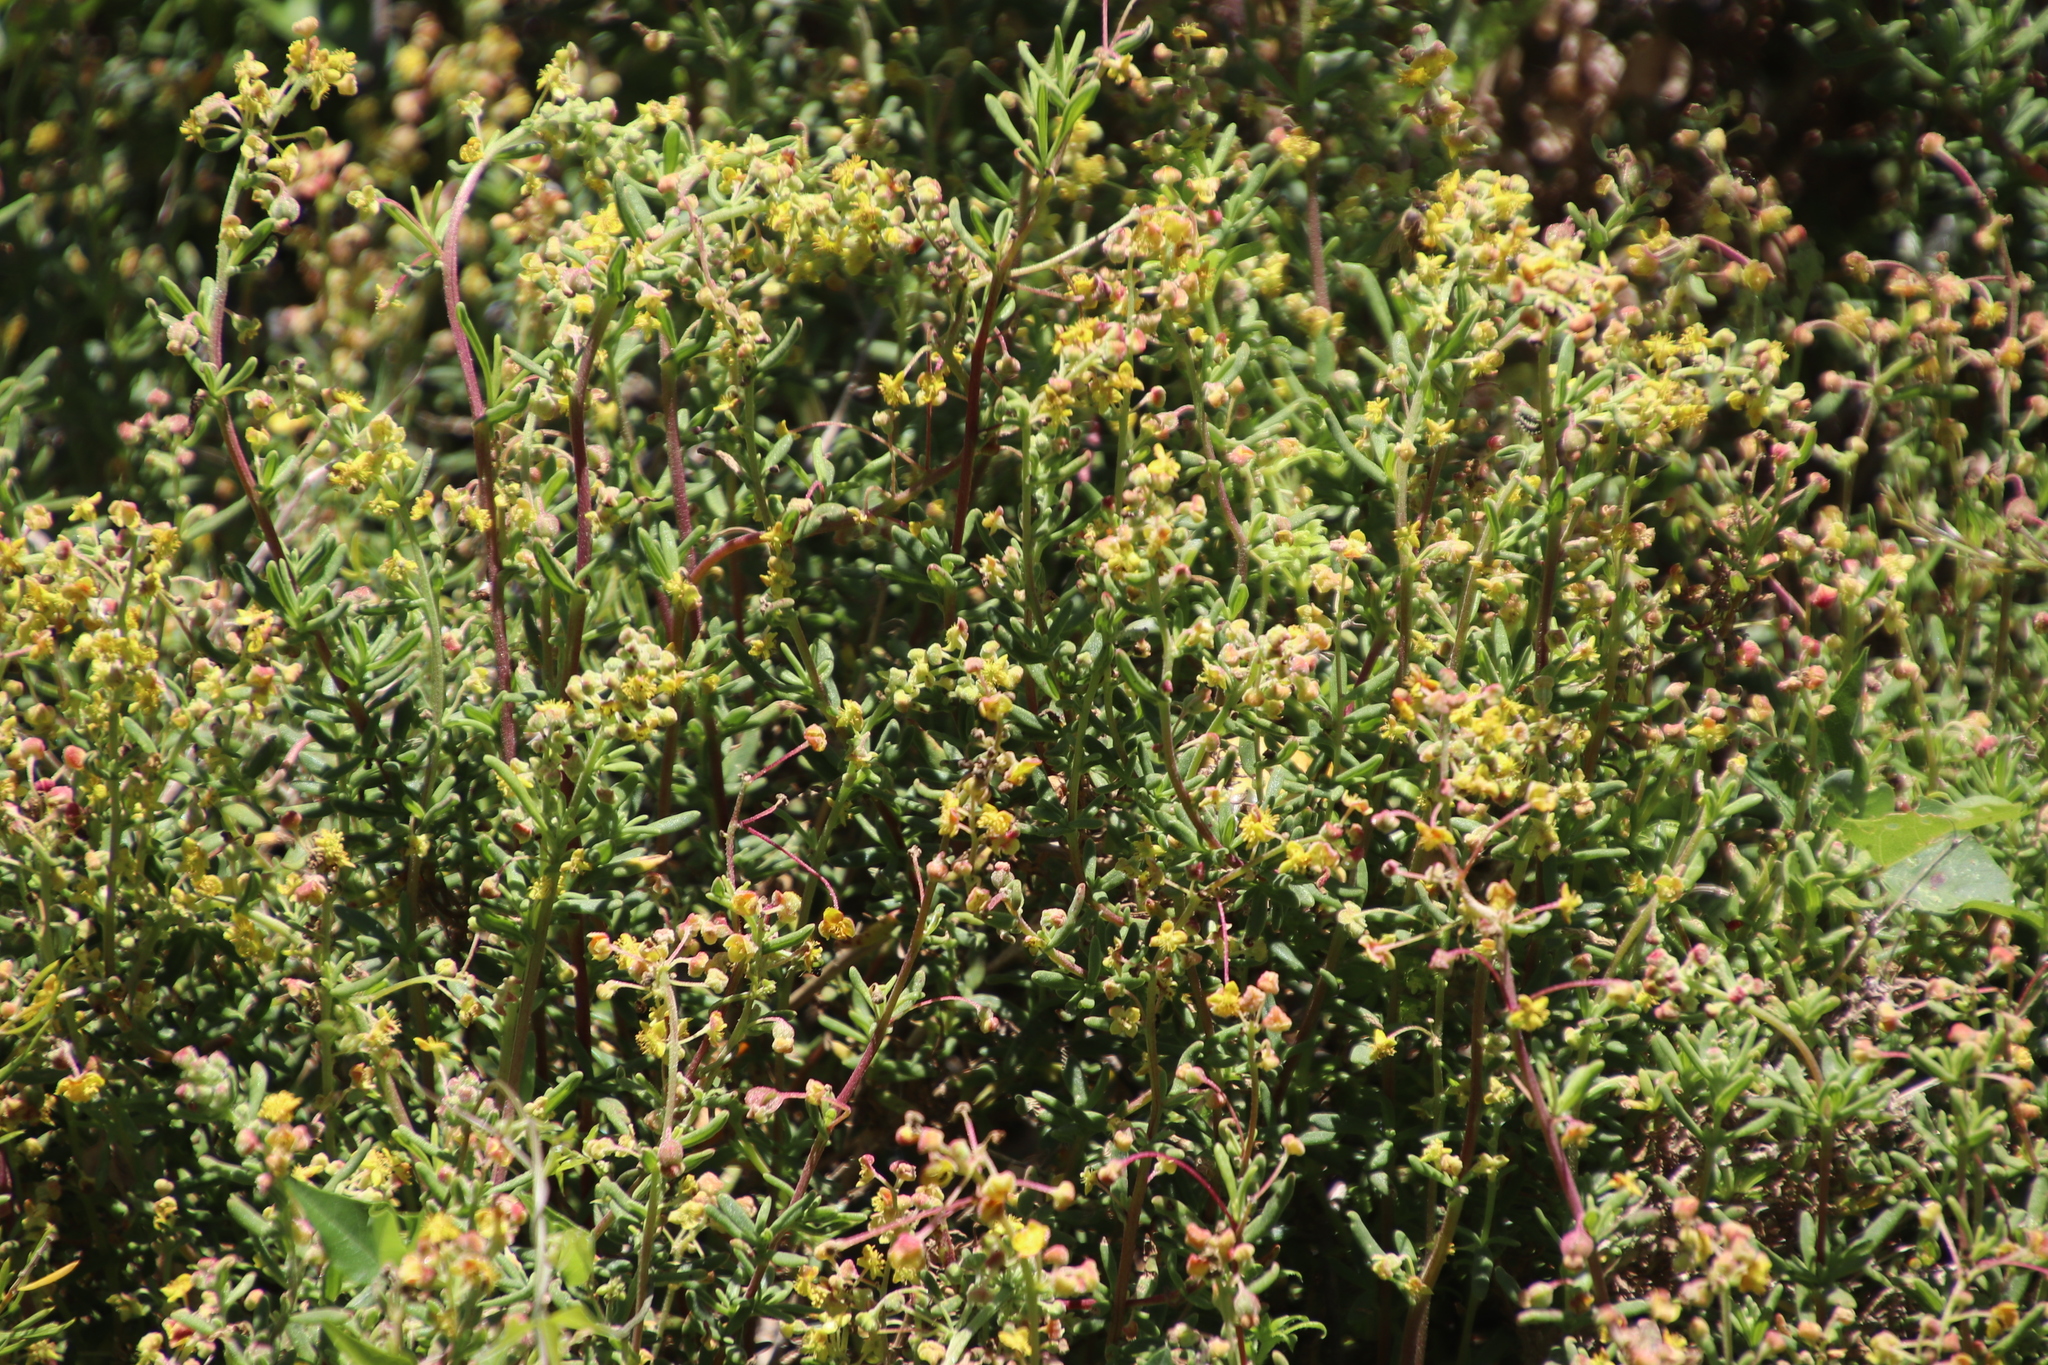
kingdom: Plantae
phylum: Tracheophyta
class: Magnoliopsida
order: Caryophyllales
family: Aizoaceae
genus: Tetragonia
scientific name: Tetragonia fruticosa
